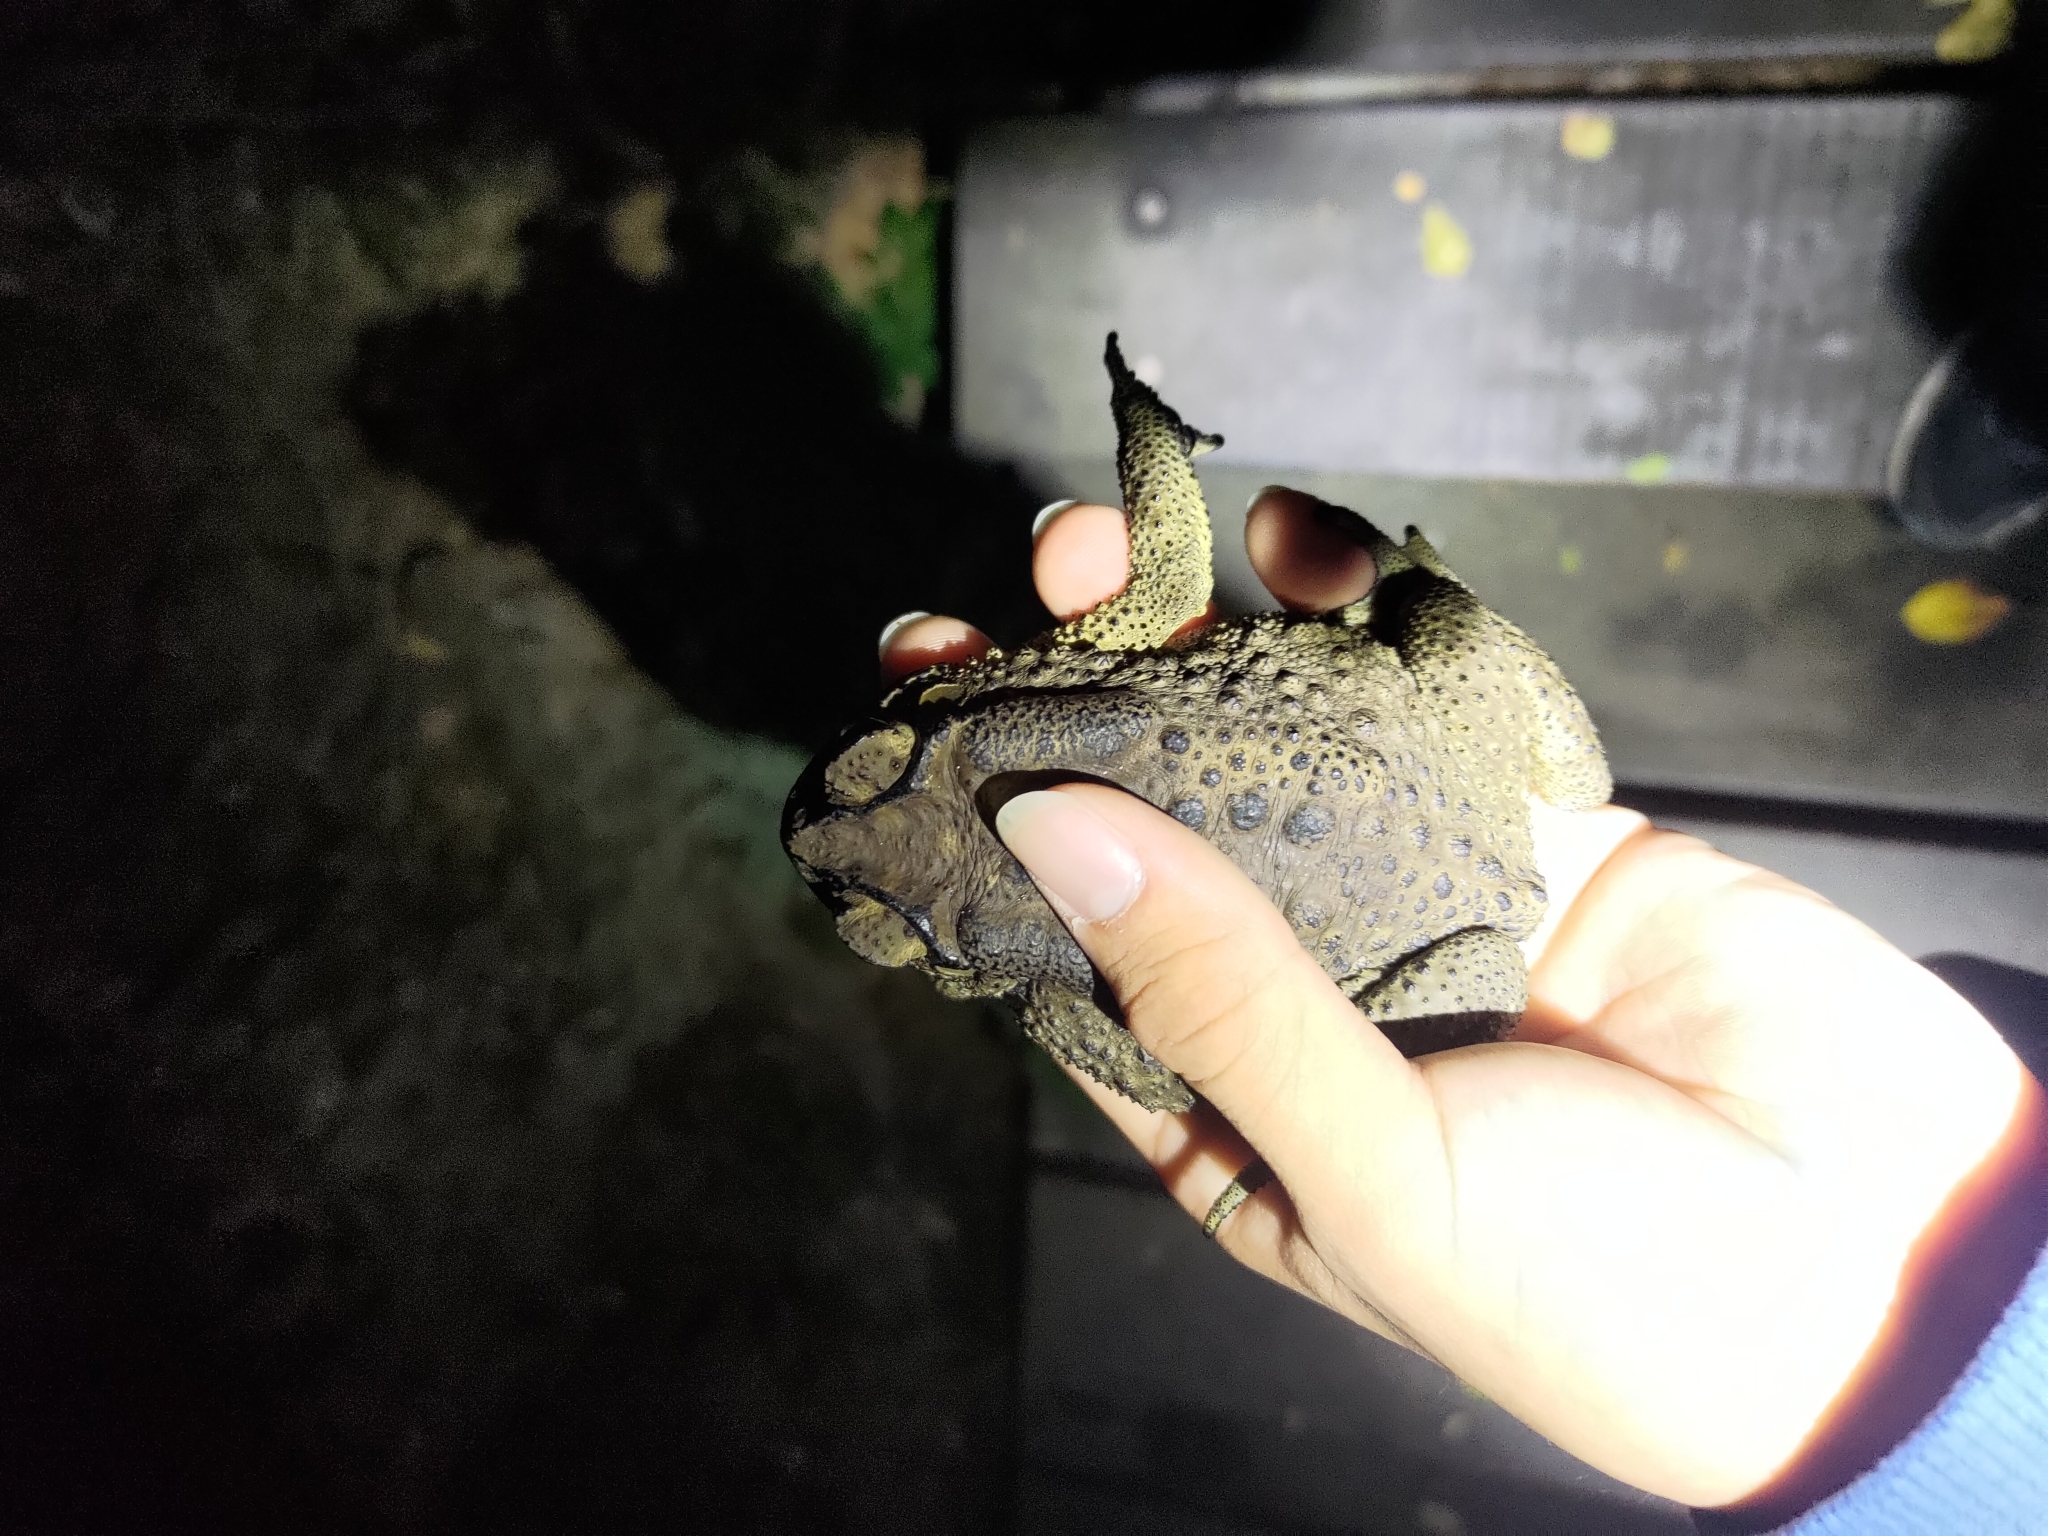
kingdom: Animalia
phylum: Chordata
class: Amphibia
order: Anura
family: Bufonidae
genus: Duttaphrynus
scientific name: Duttaphrynus melanostictus
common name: Common sunda toad
